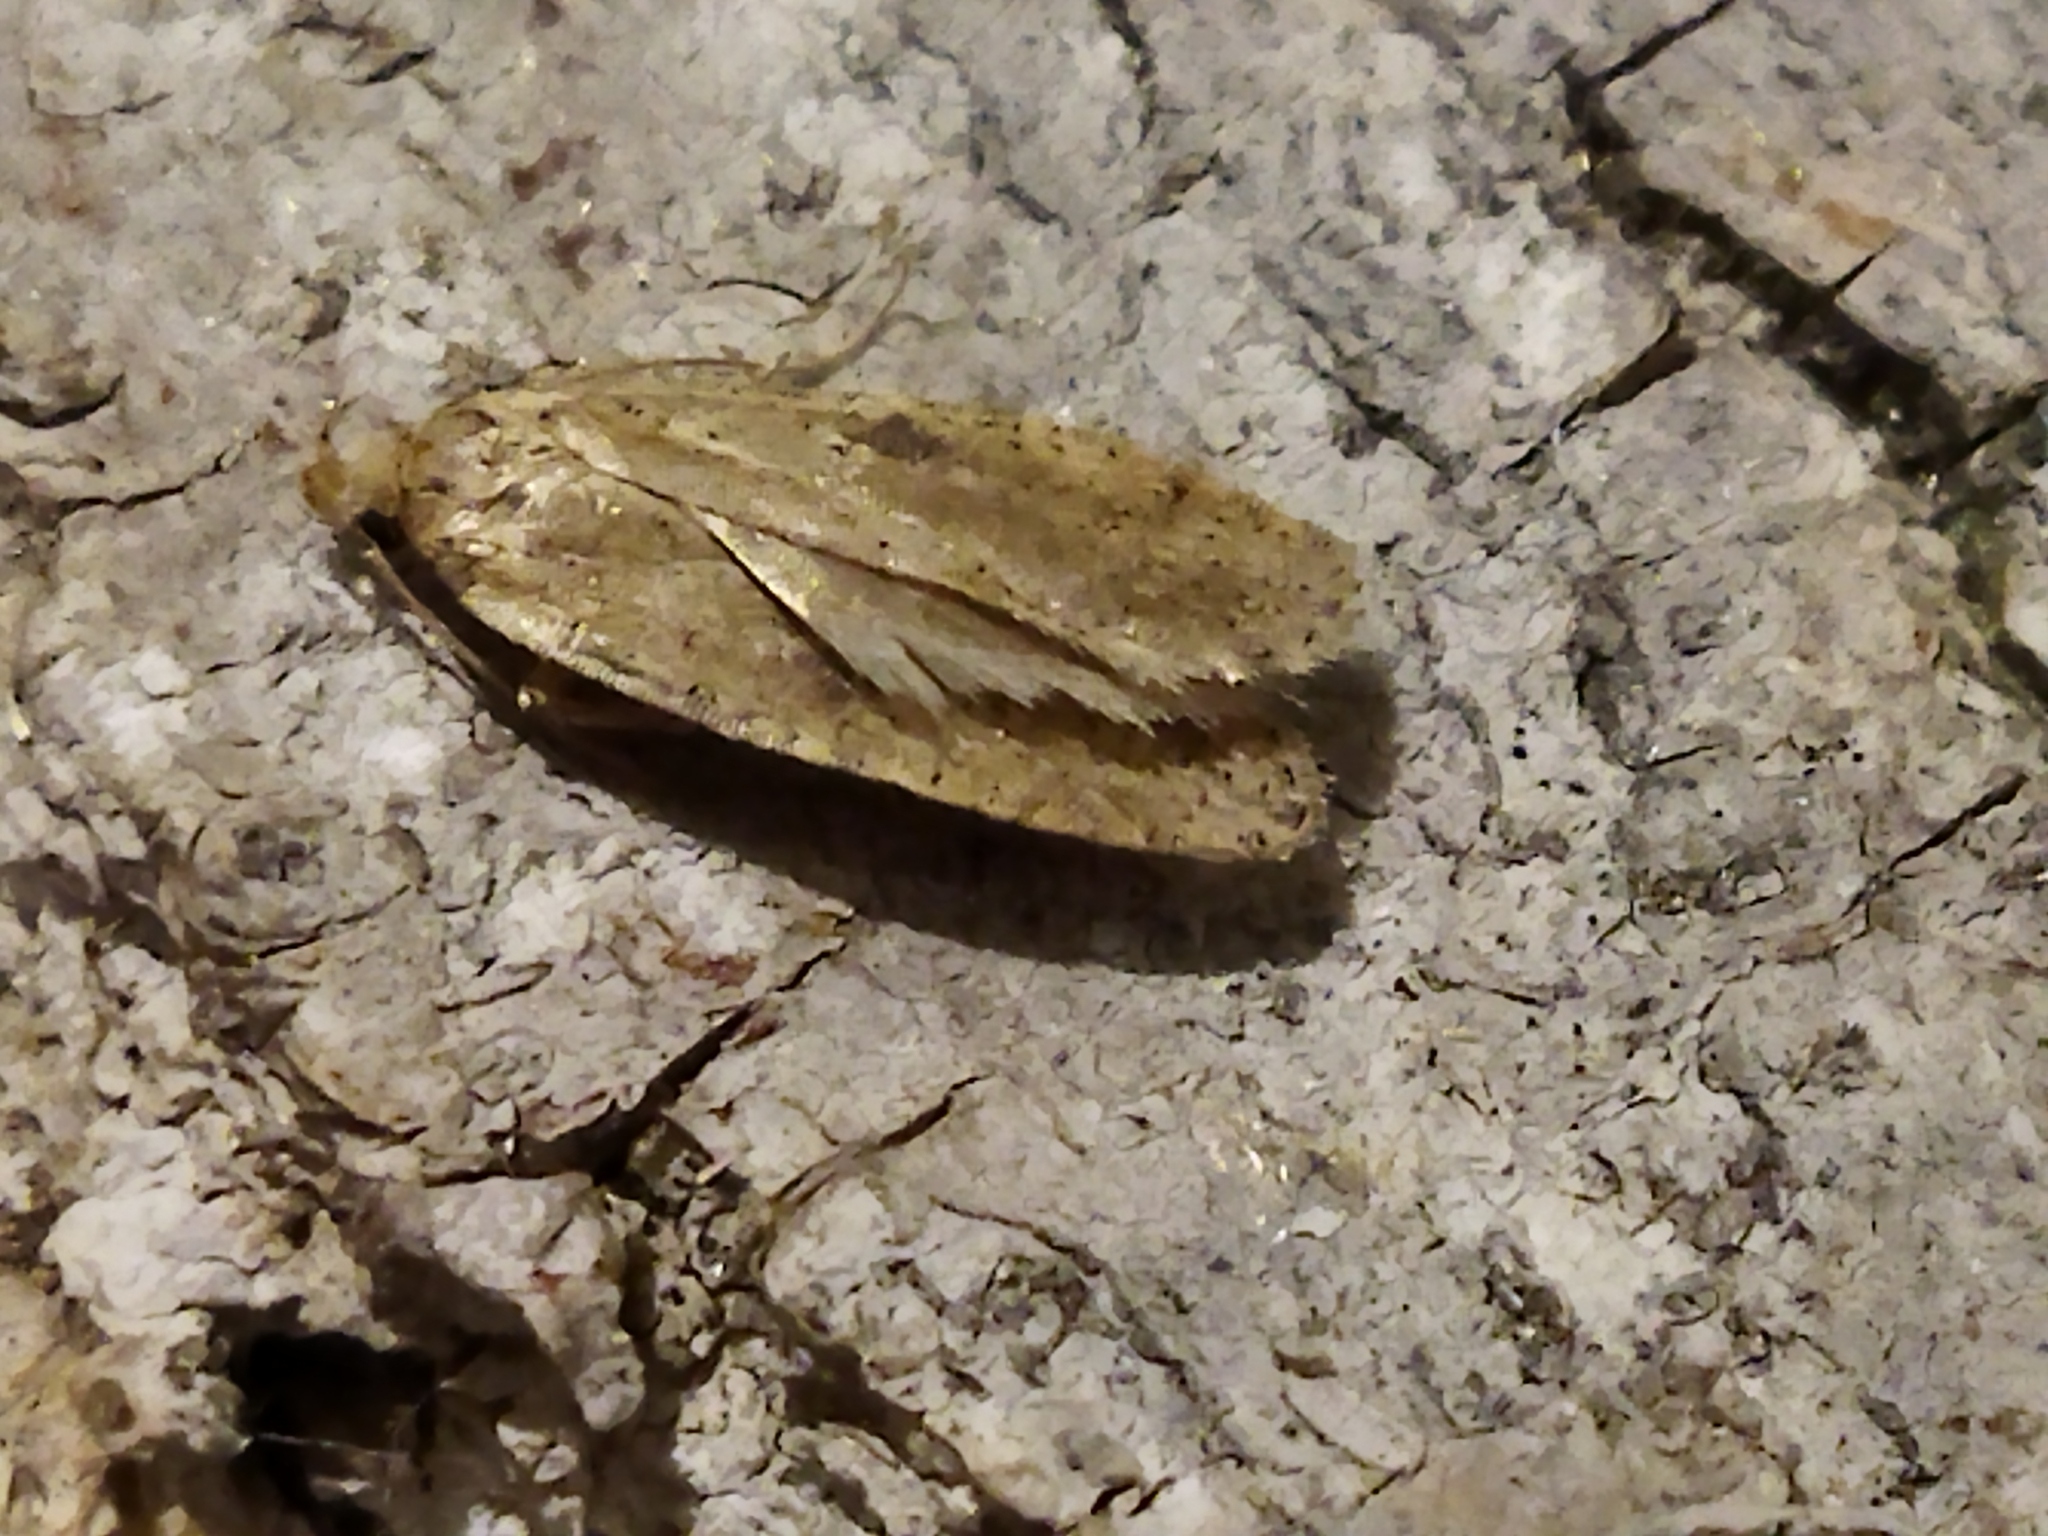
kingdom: Animalia
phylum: Arthropoda
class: Insecta
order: Lepidoptera
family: Depressariidae
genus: Agonopterix
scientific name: Agonopterix arenella
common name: Brindled flat-body
